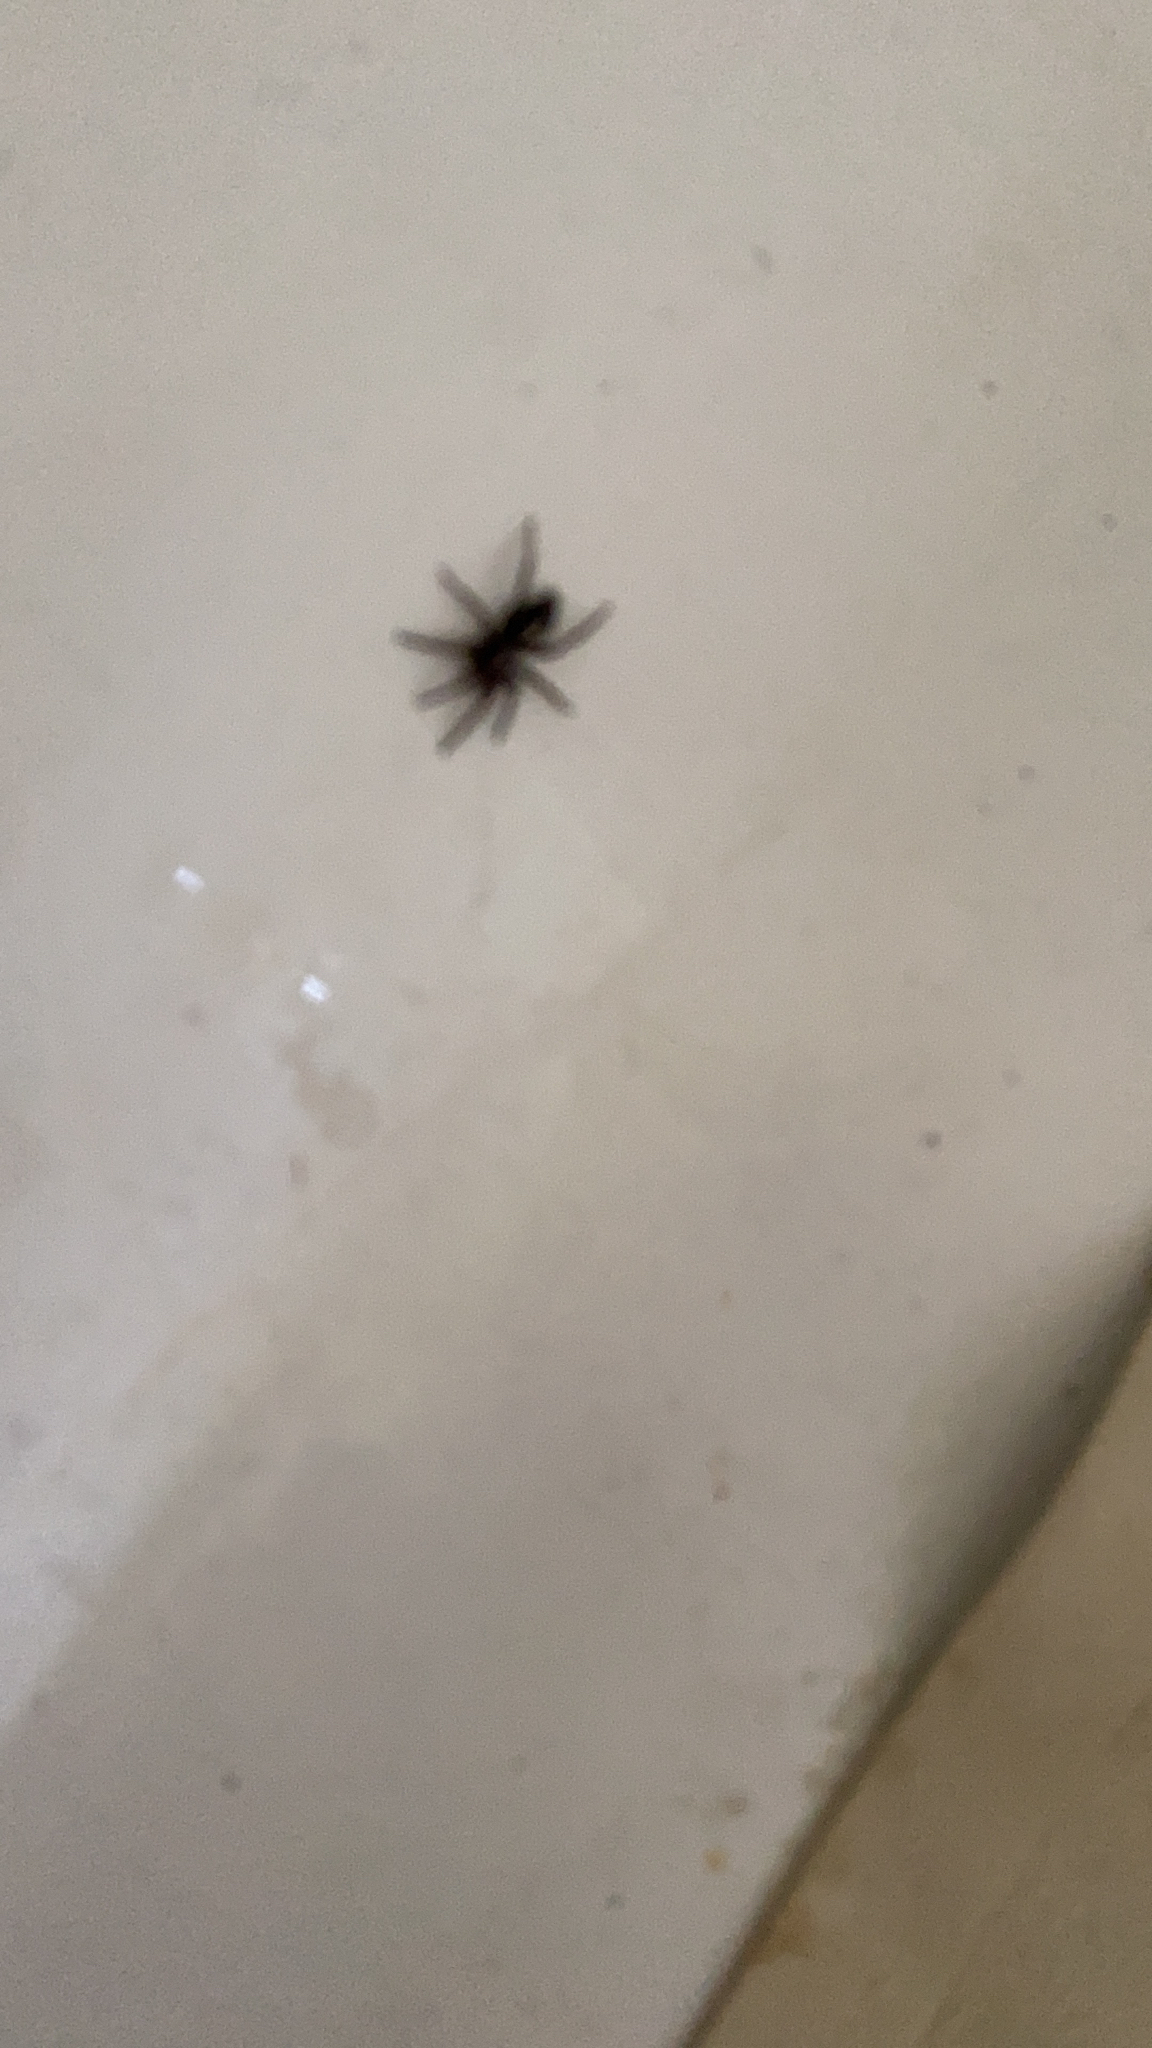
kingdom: Animalia
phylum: Arthropoda
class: Arachnida
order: Araneae
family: Gnaphosidae
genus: Herpyllus
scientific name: Herpyllus ecclesiasticus
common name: Eastern parson spider
